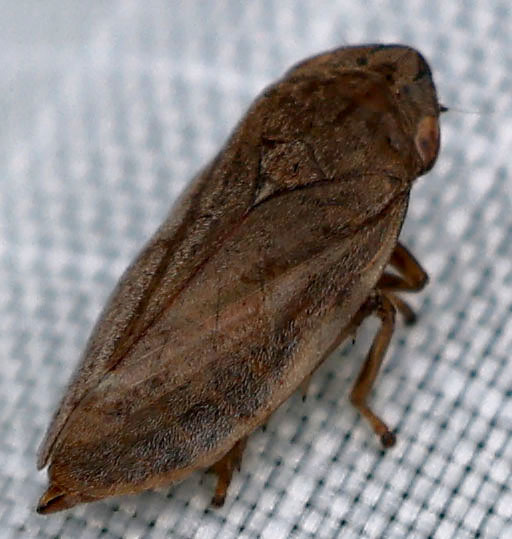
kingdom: Animalia
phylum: Arthropoda
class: Insecta
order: Hemiptera
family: Aphrophoridae
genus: Philaenus
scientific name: Philaenus spumarius
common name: Meadow spittlebug
